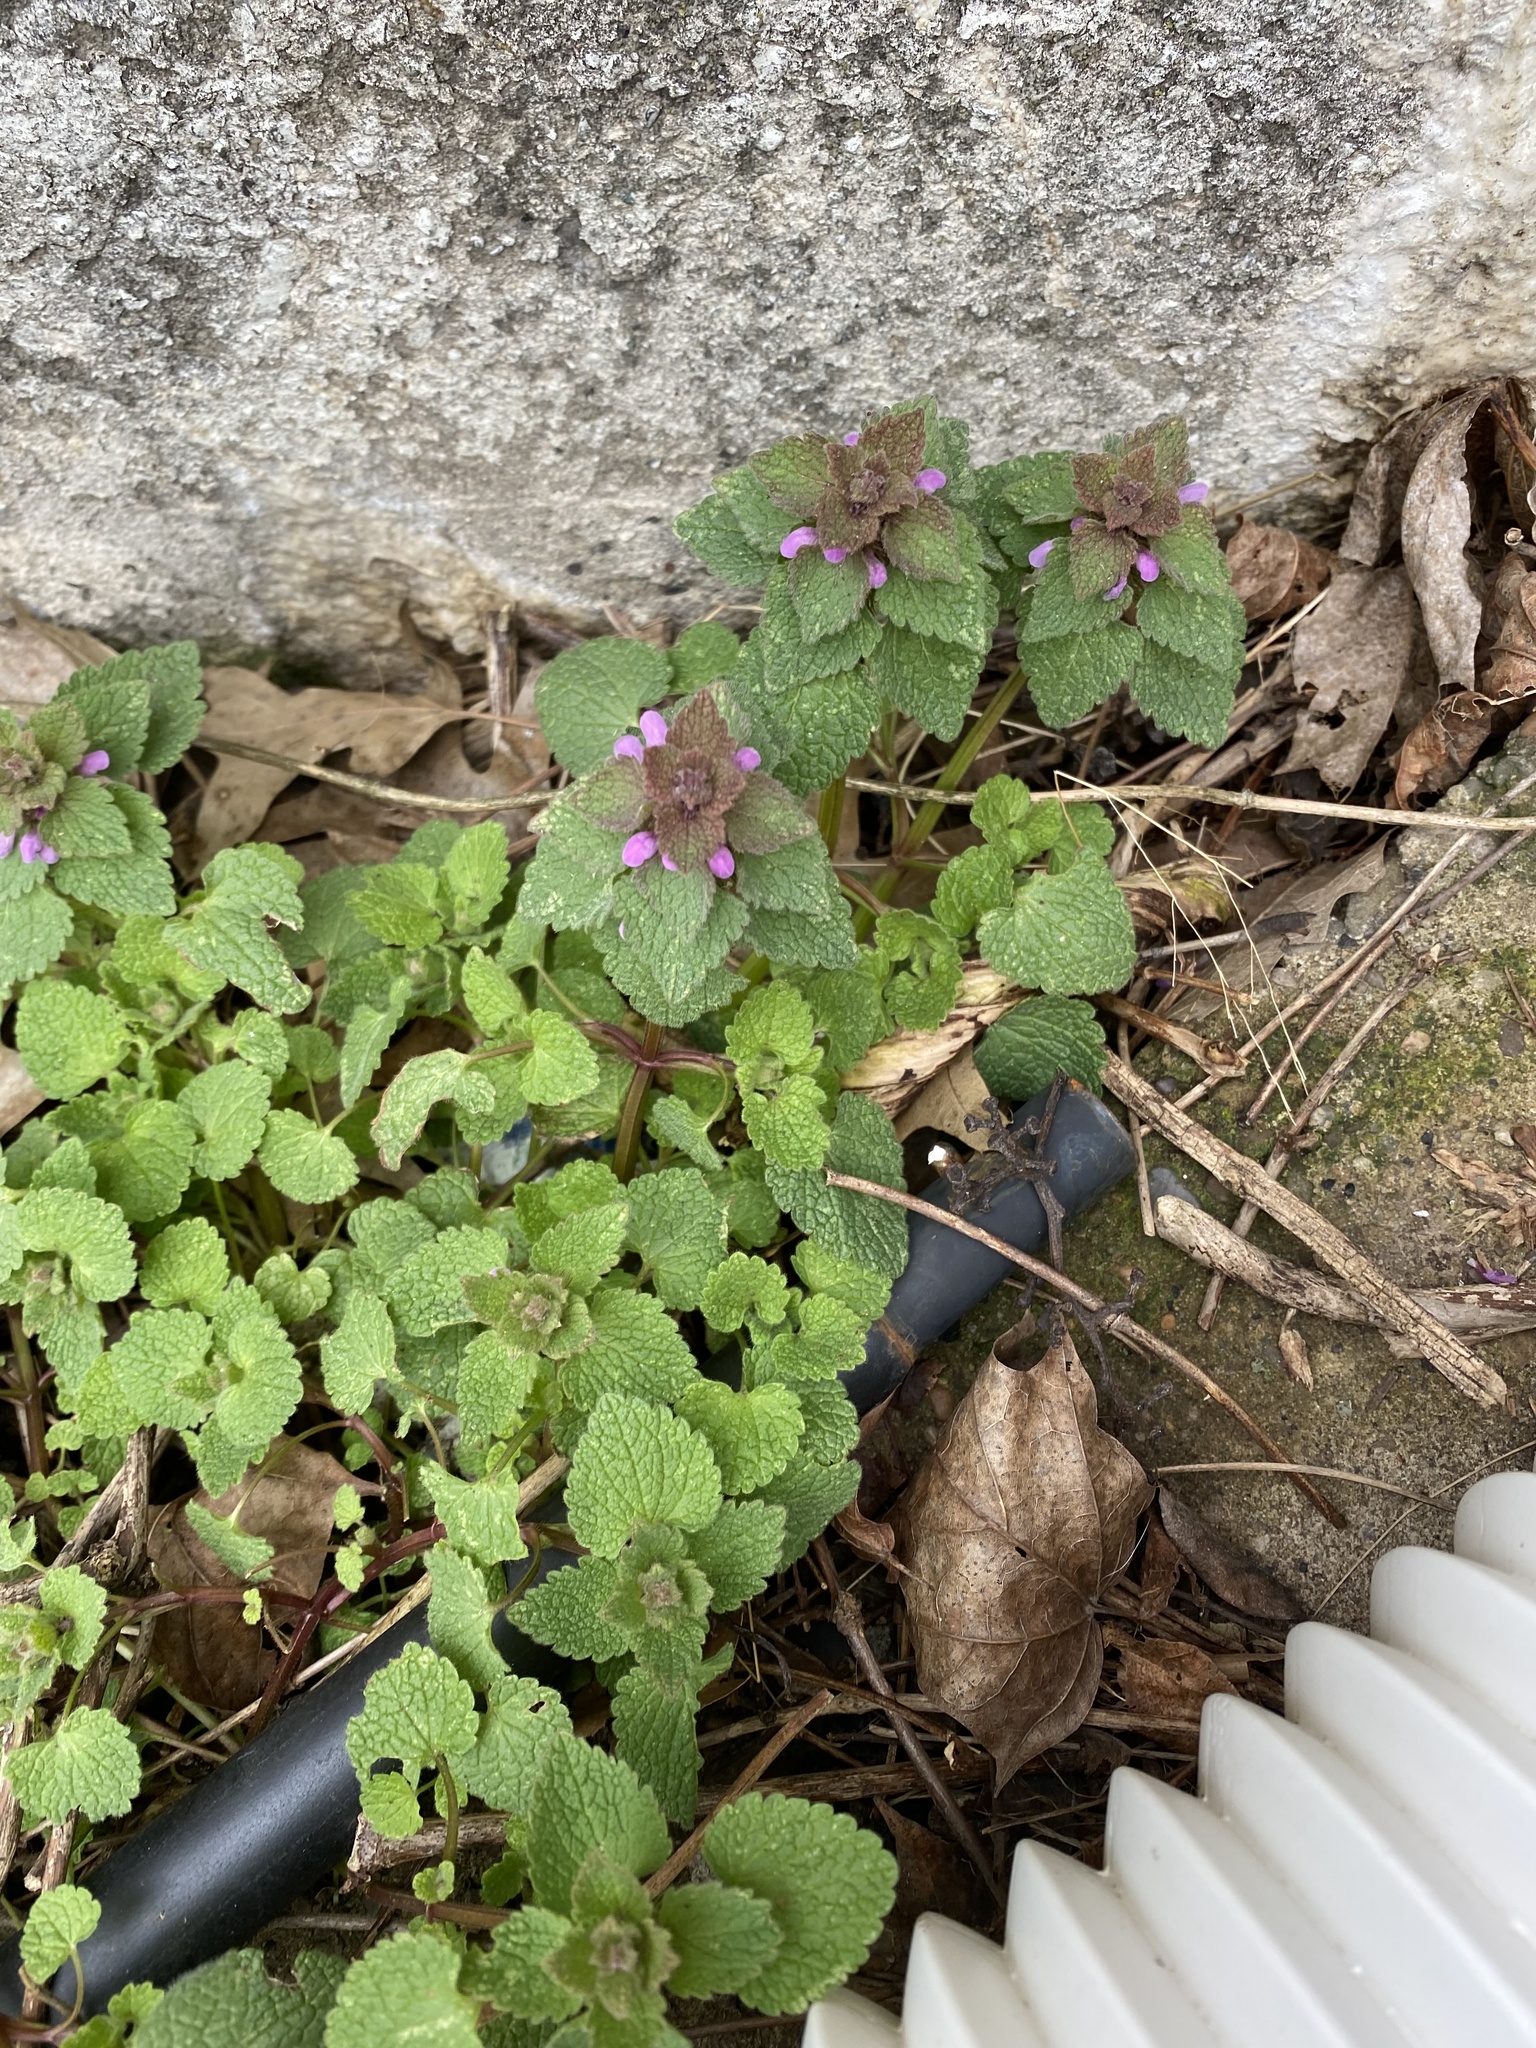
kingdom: Plantae
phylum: Tracheophyta
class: Magnoliopsida
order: Lamiales
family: Lamiaceae
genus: Lamium
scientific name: Lamium purpureum
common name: Red dead-nettle
